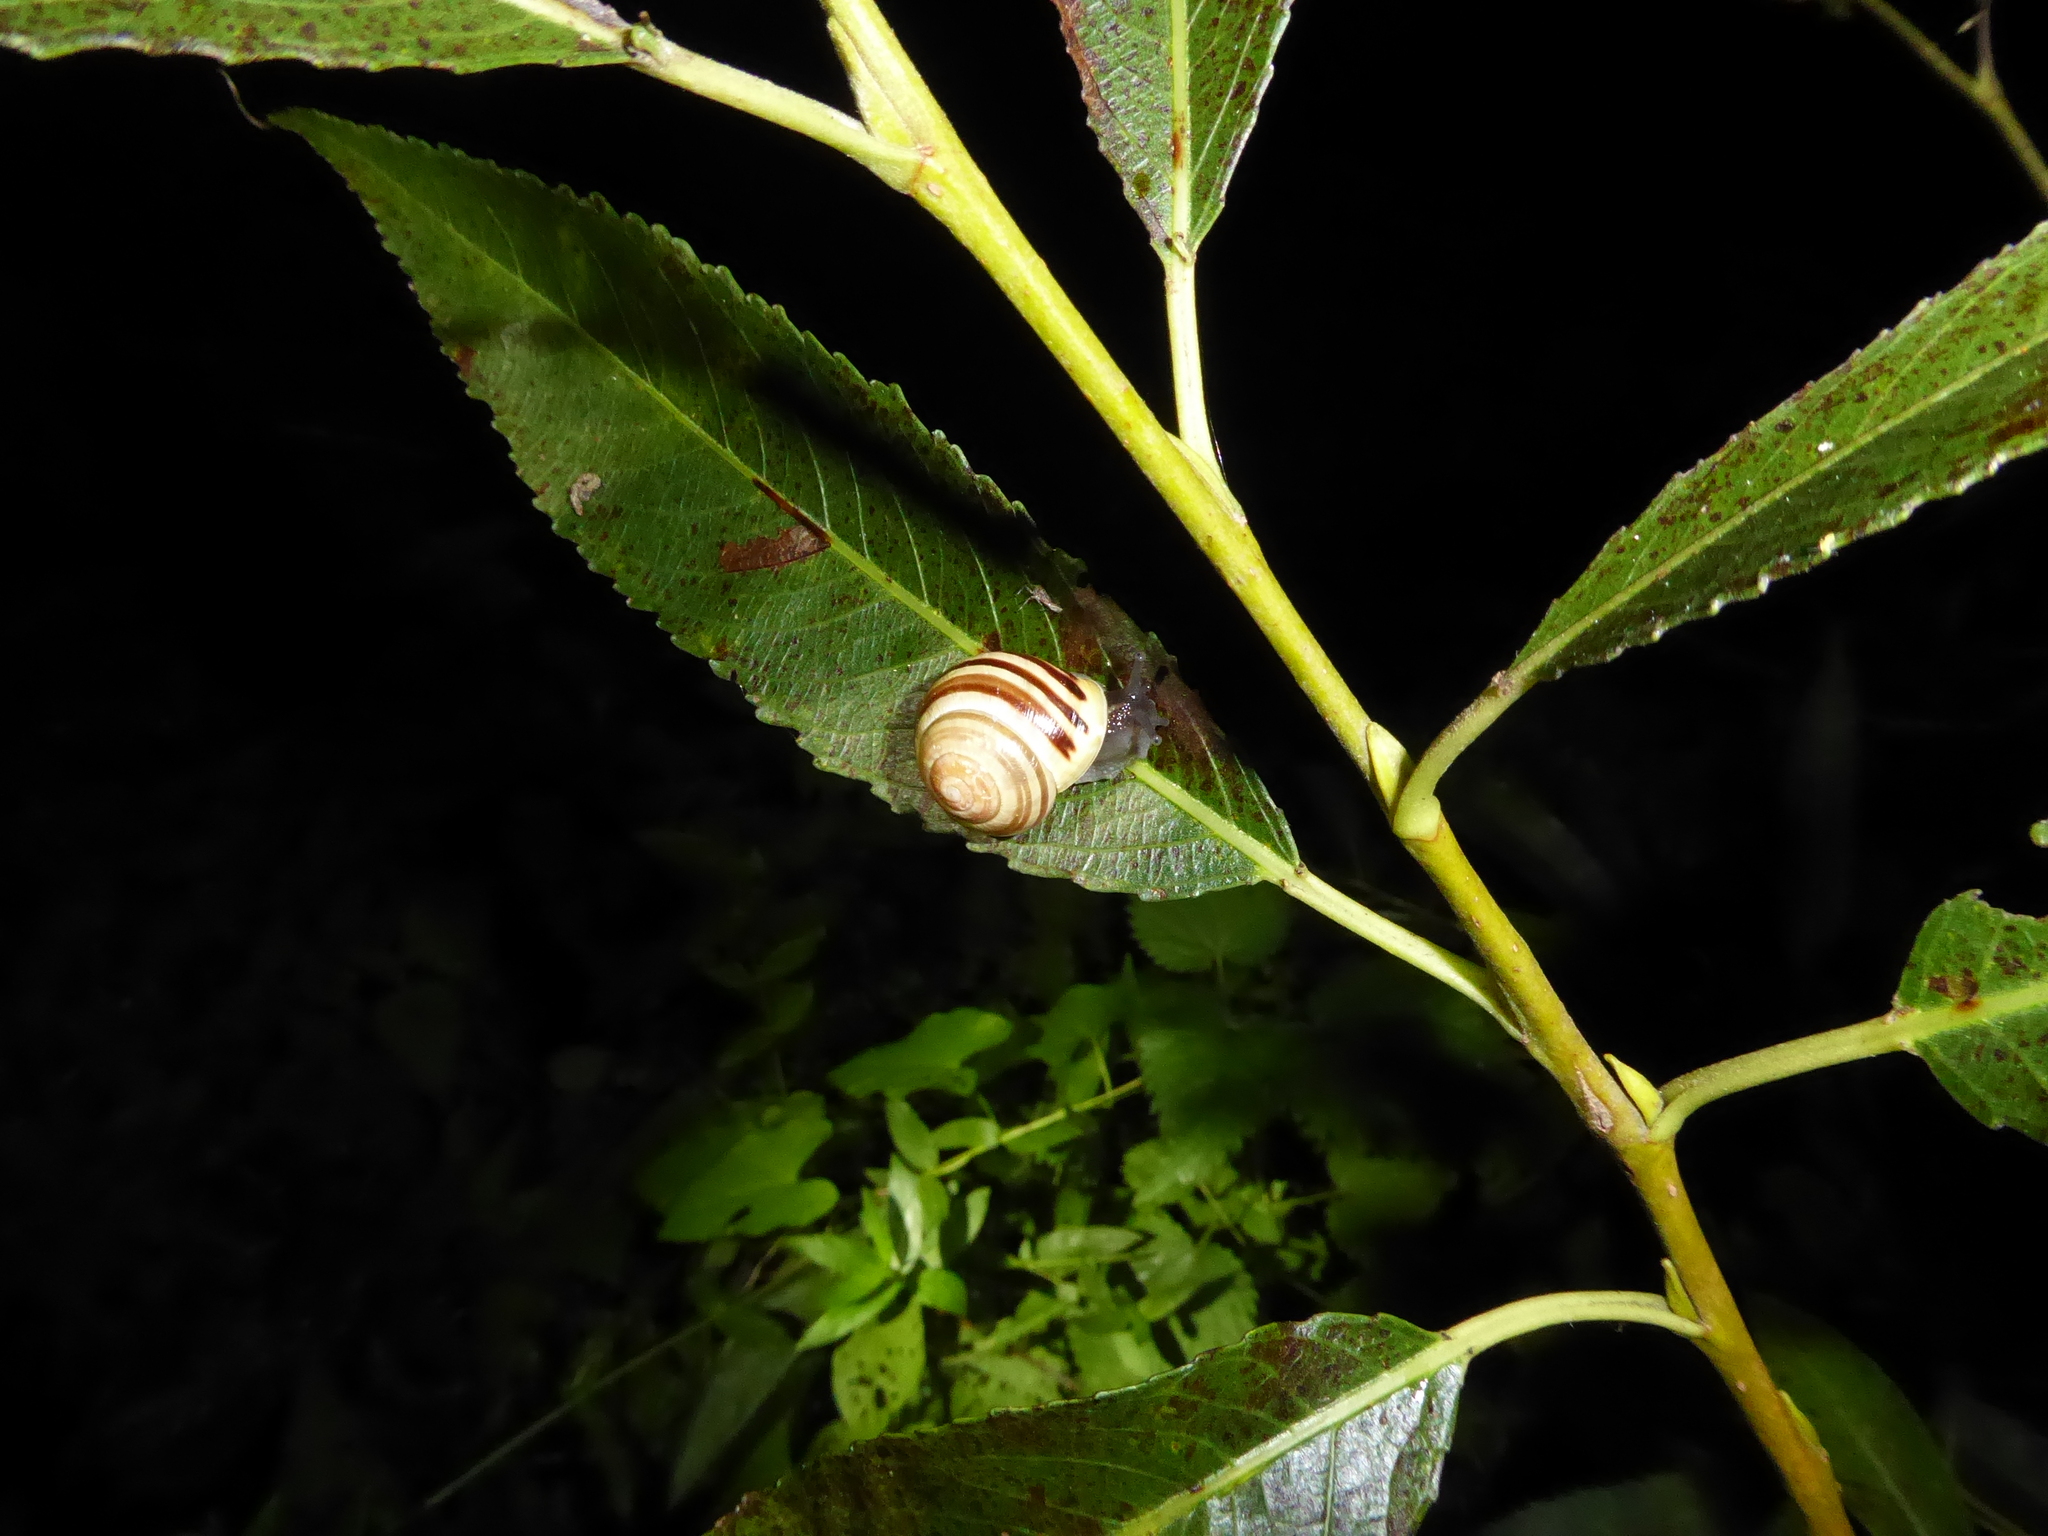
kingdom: Animalia
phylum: Mollusca
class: Gastropoda
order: Stylommatophora
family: Helicidae
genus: Cepaea
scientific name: Cepaea hortensis
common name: White-lip gardensnail
